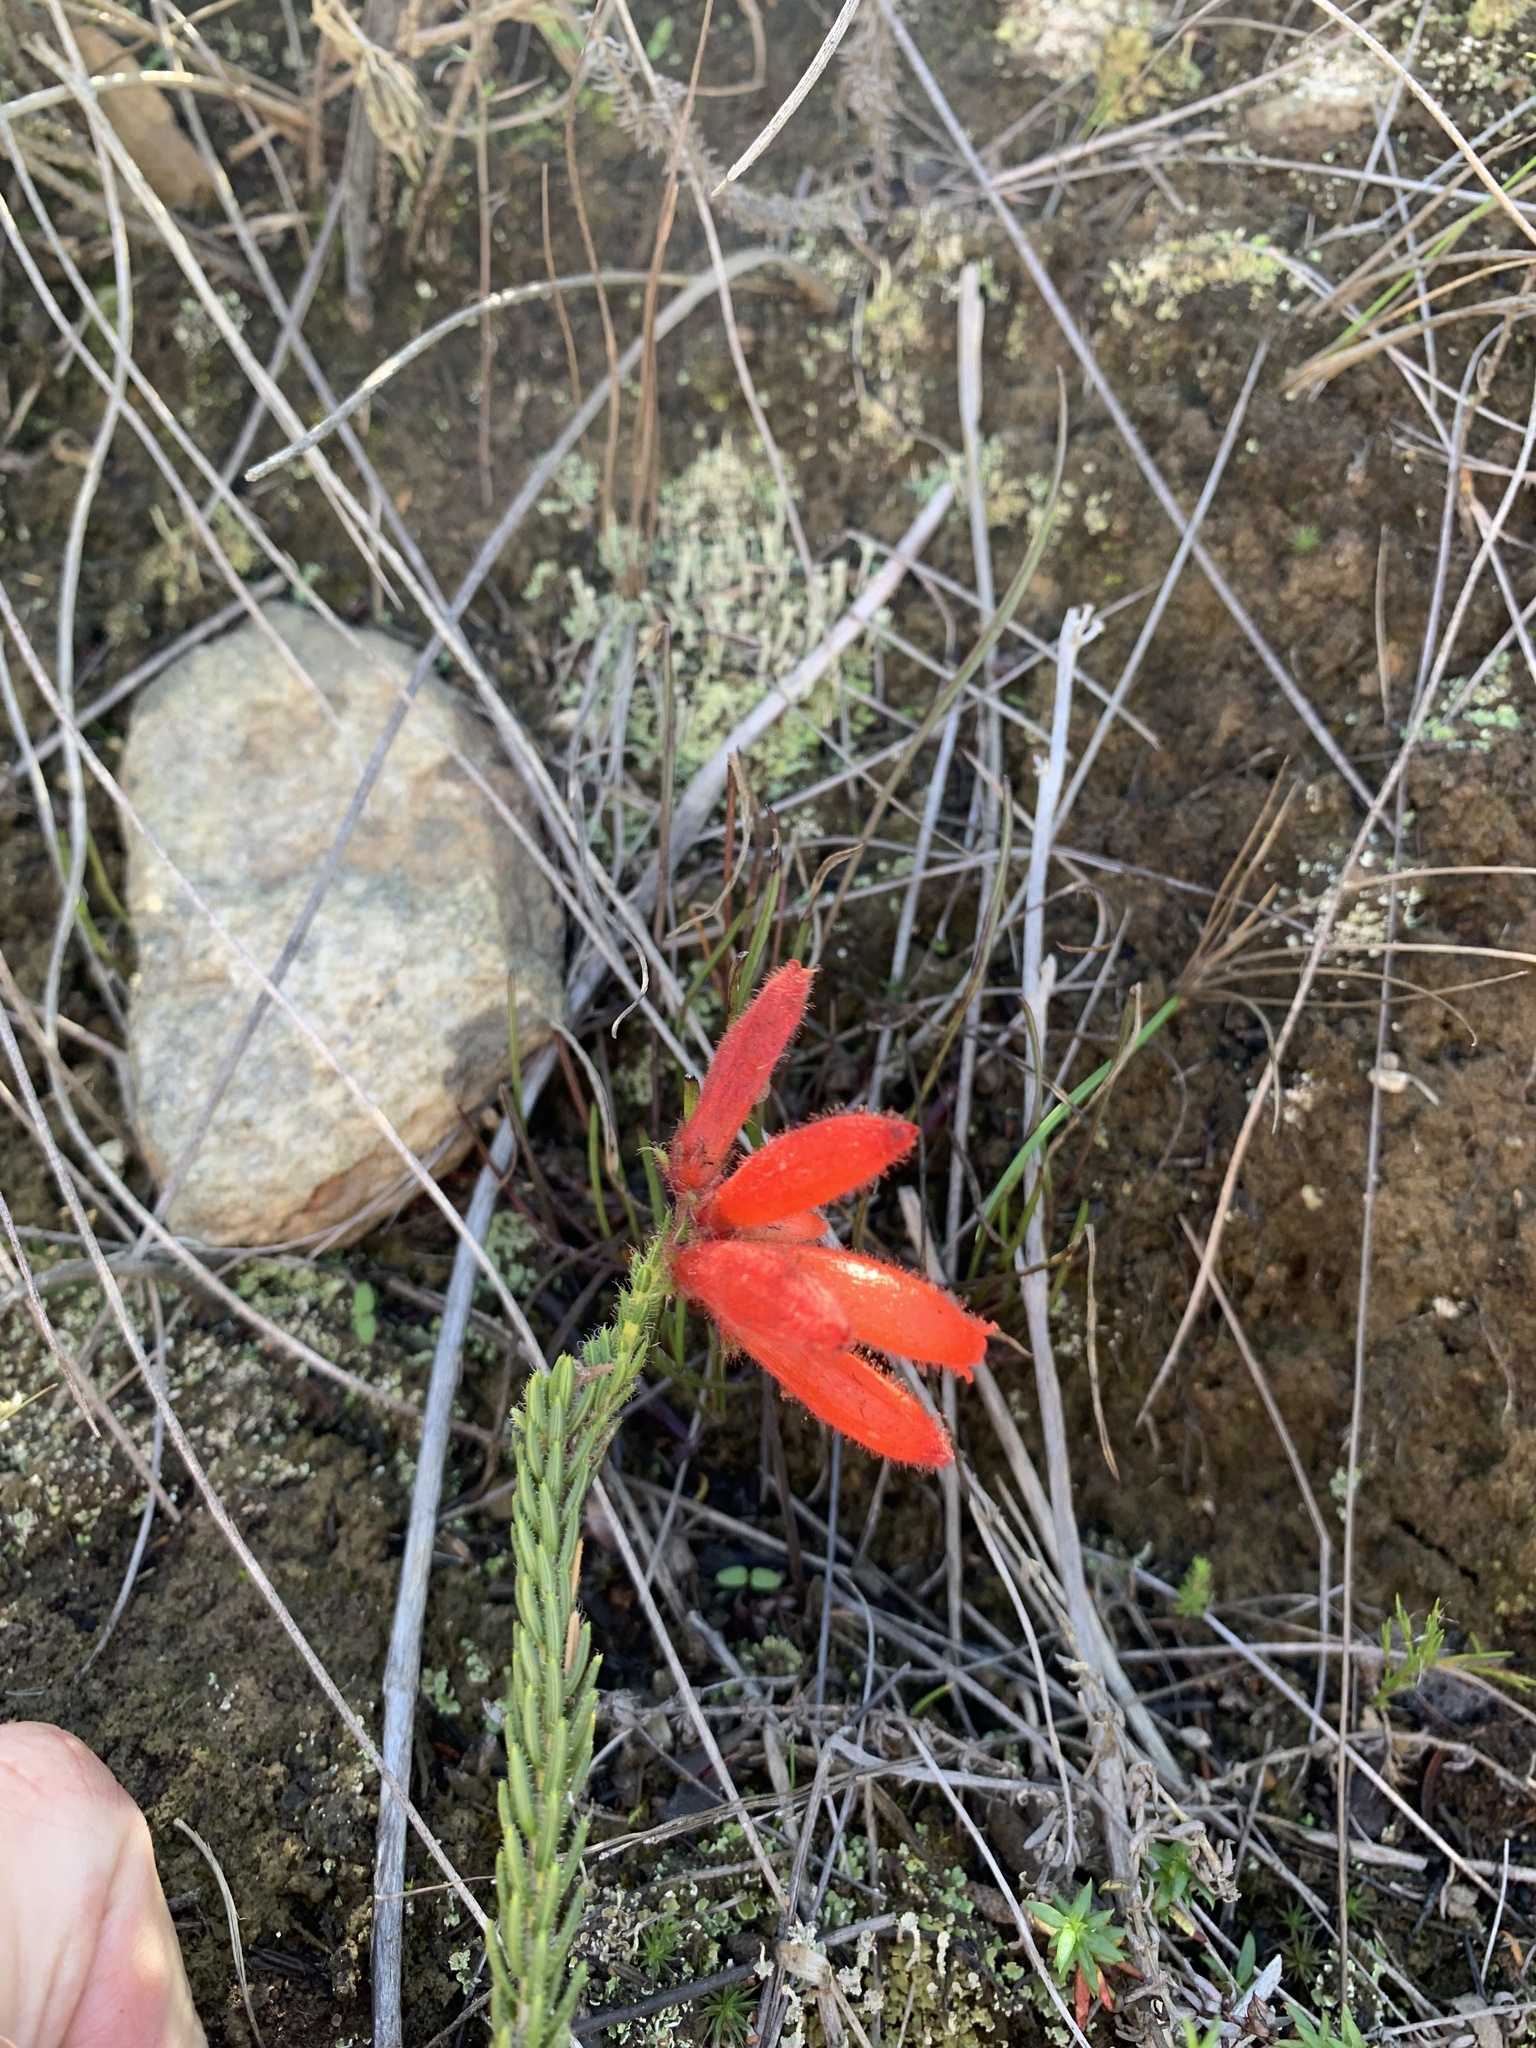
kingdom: Plantae
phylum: Tracheophyta
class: Magnoliopsida
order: Ericales
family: Ericaceae
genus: Erica
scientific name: Erica cerinthoides
